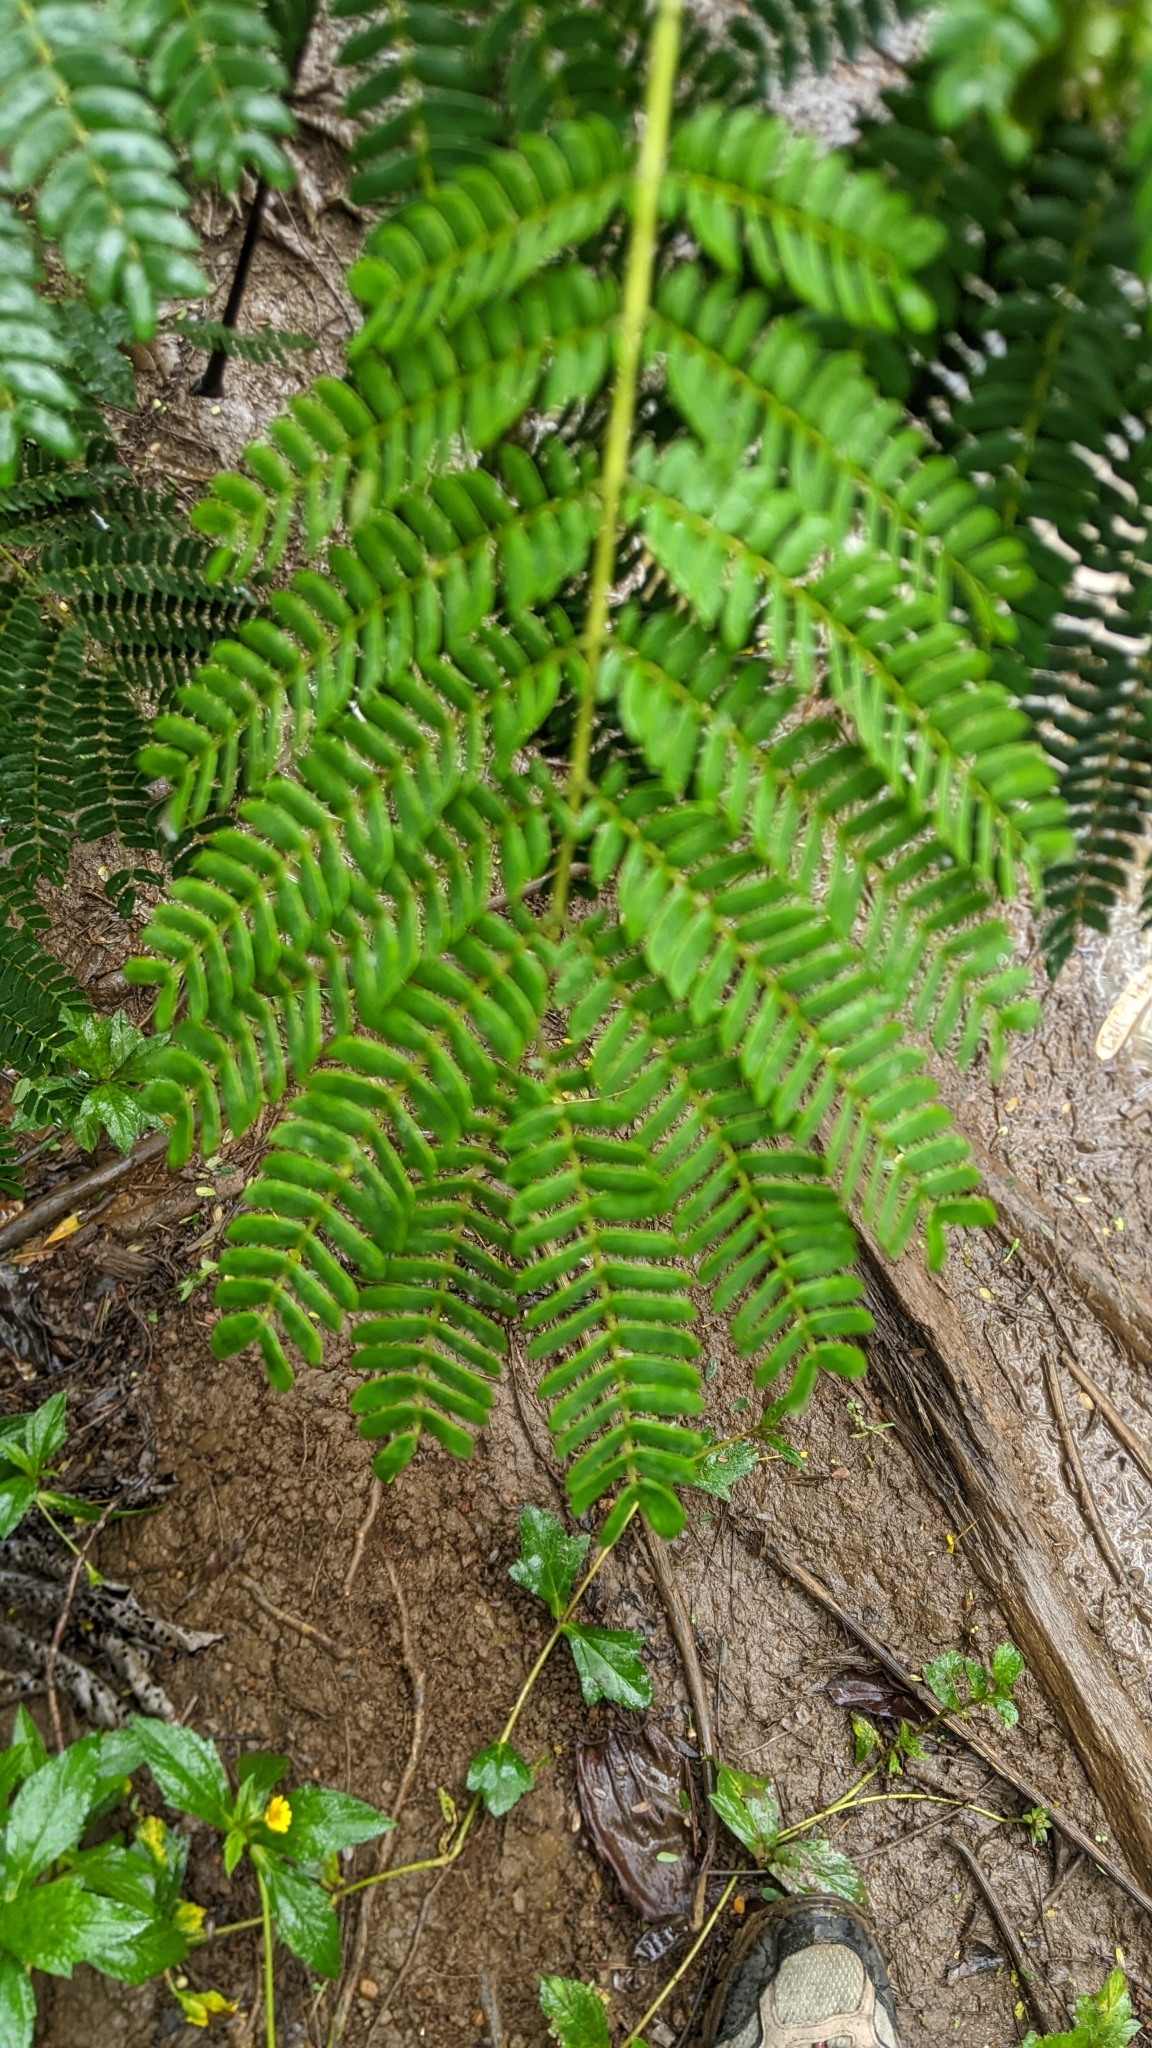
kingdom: Plantae
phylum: Tracheophyta
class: Magnoliopsida
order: Fabales
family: Fabaceae
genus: Leucaena
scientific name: Leucaena leucocephala
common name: White leadtree
